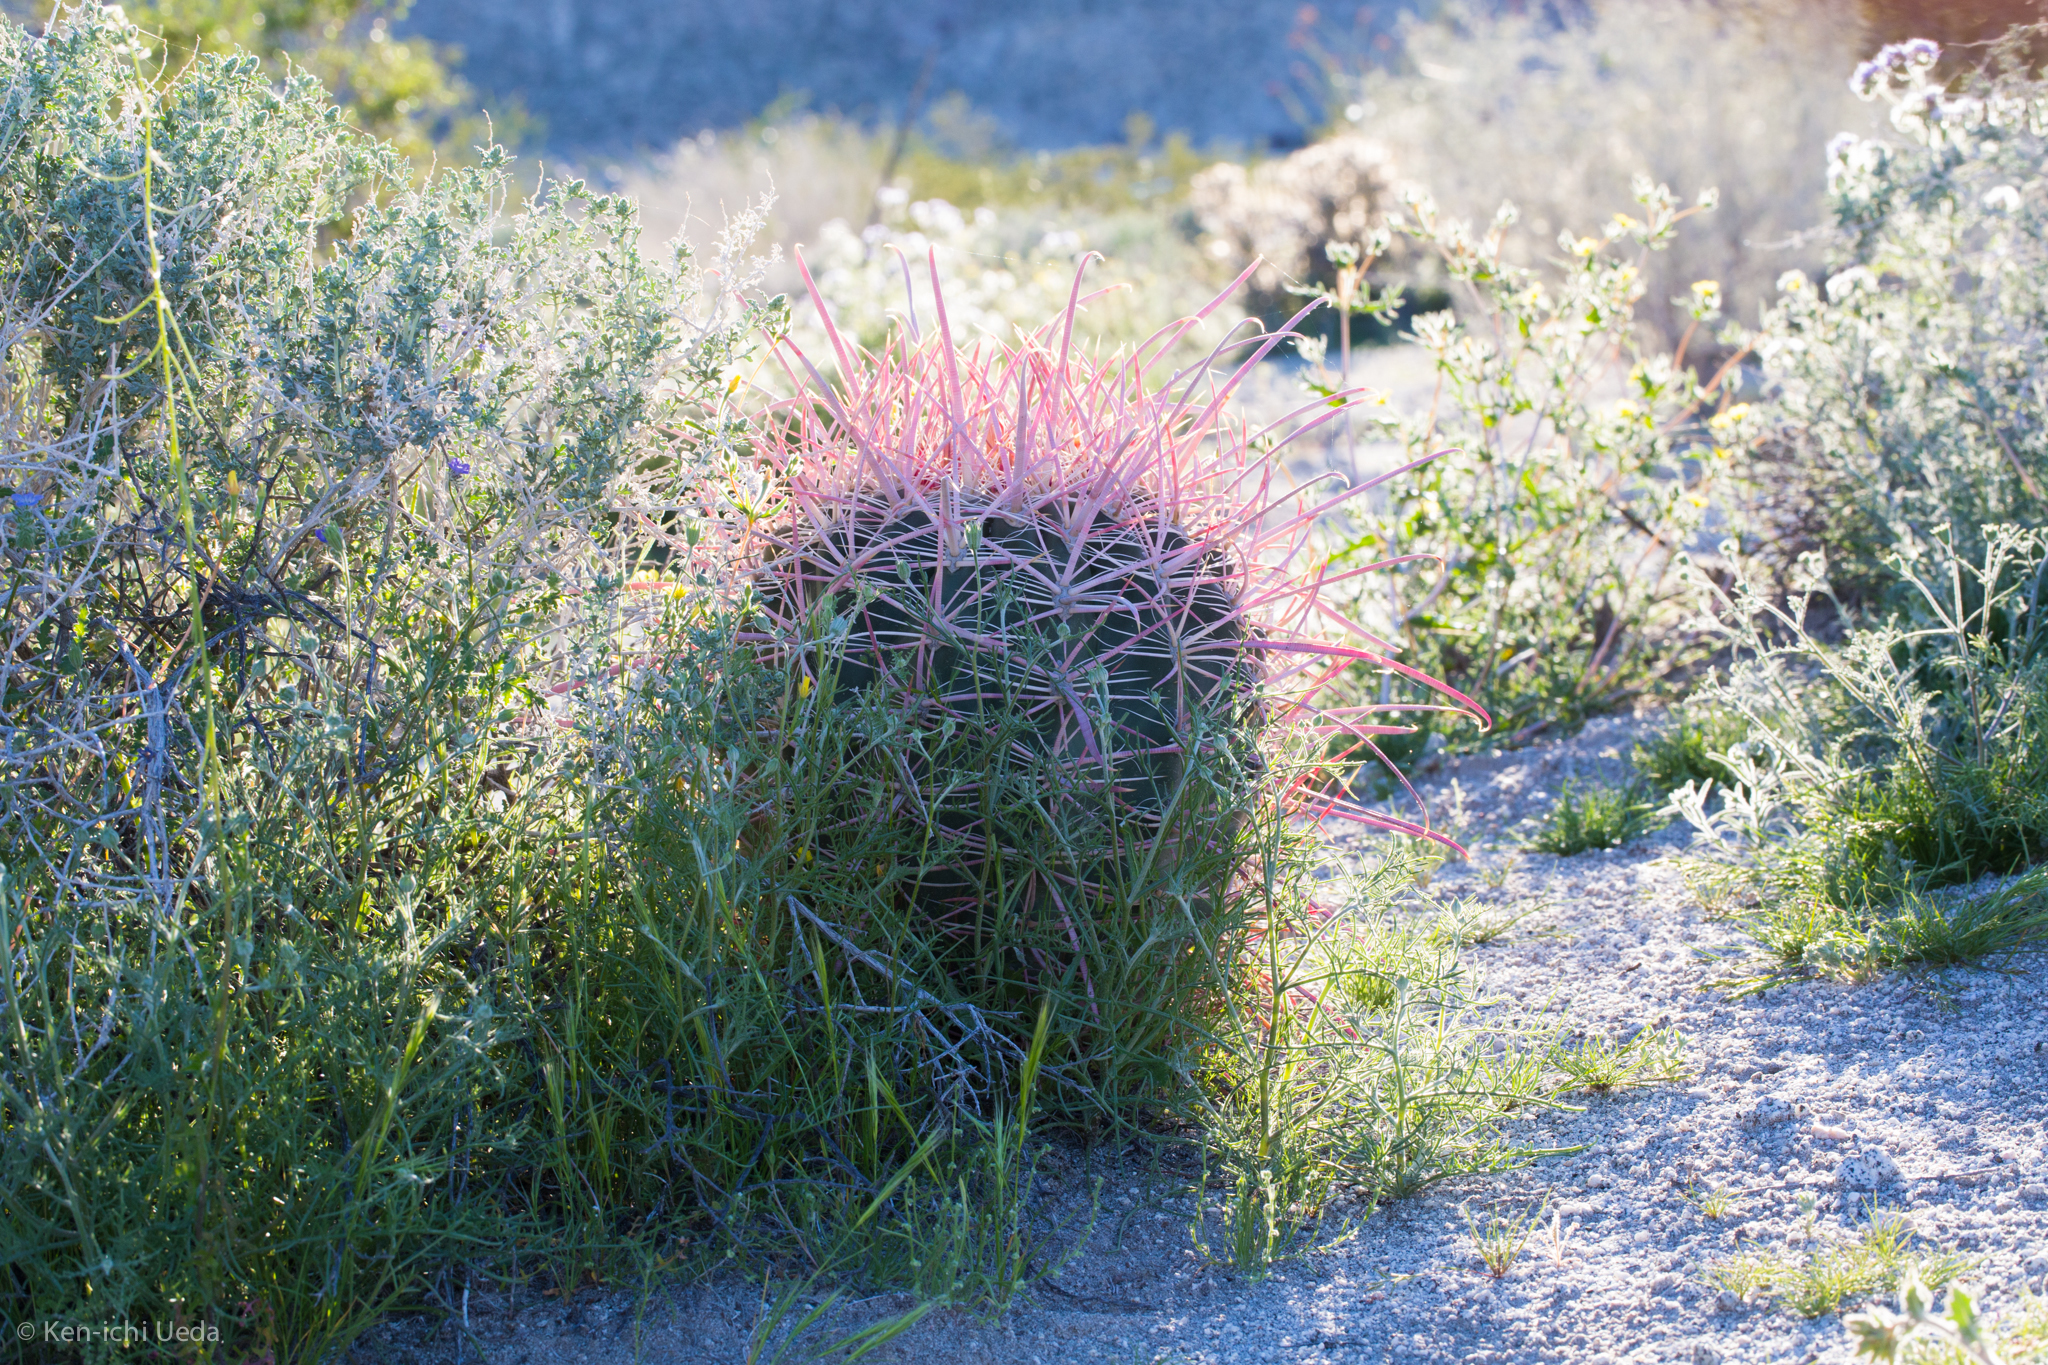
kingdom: Plantae
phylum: Tracheophyta
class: Magnoliopsida
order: Caryophyllales
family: Cactaceae
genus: Ferocactus
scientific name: Ferocactus cylindraceus
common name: California barrel cactus
